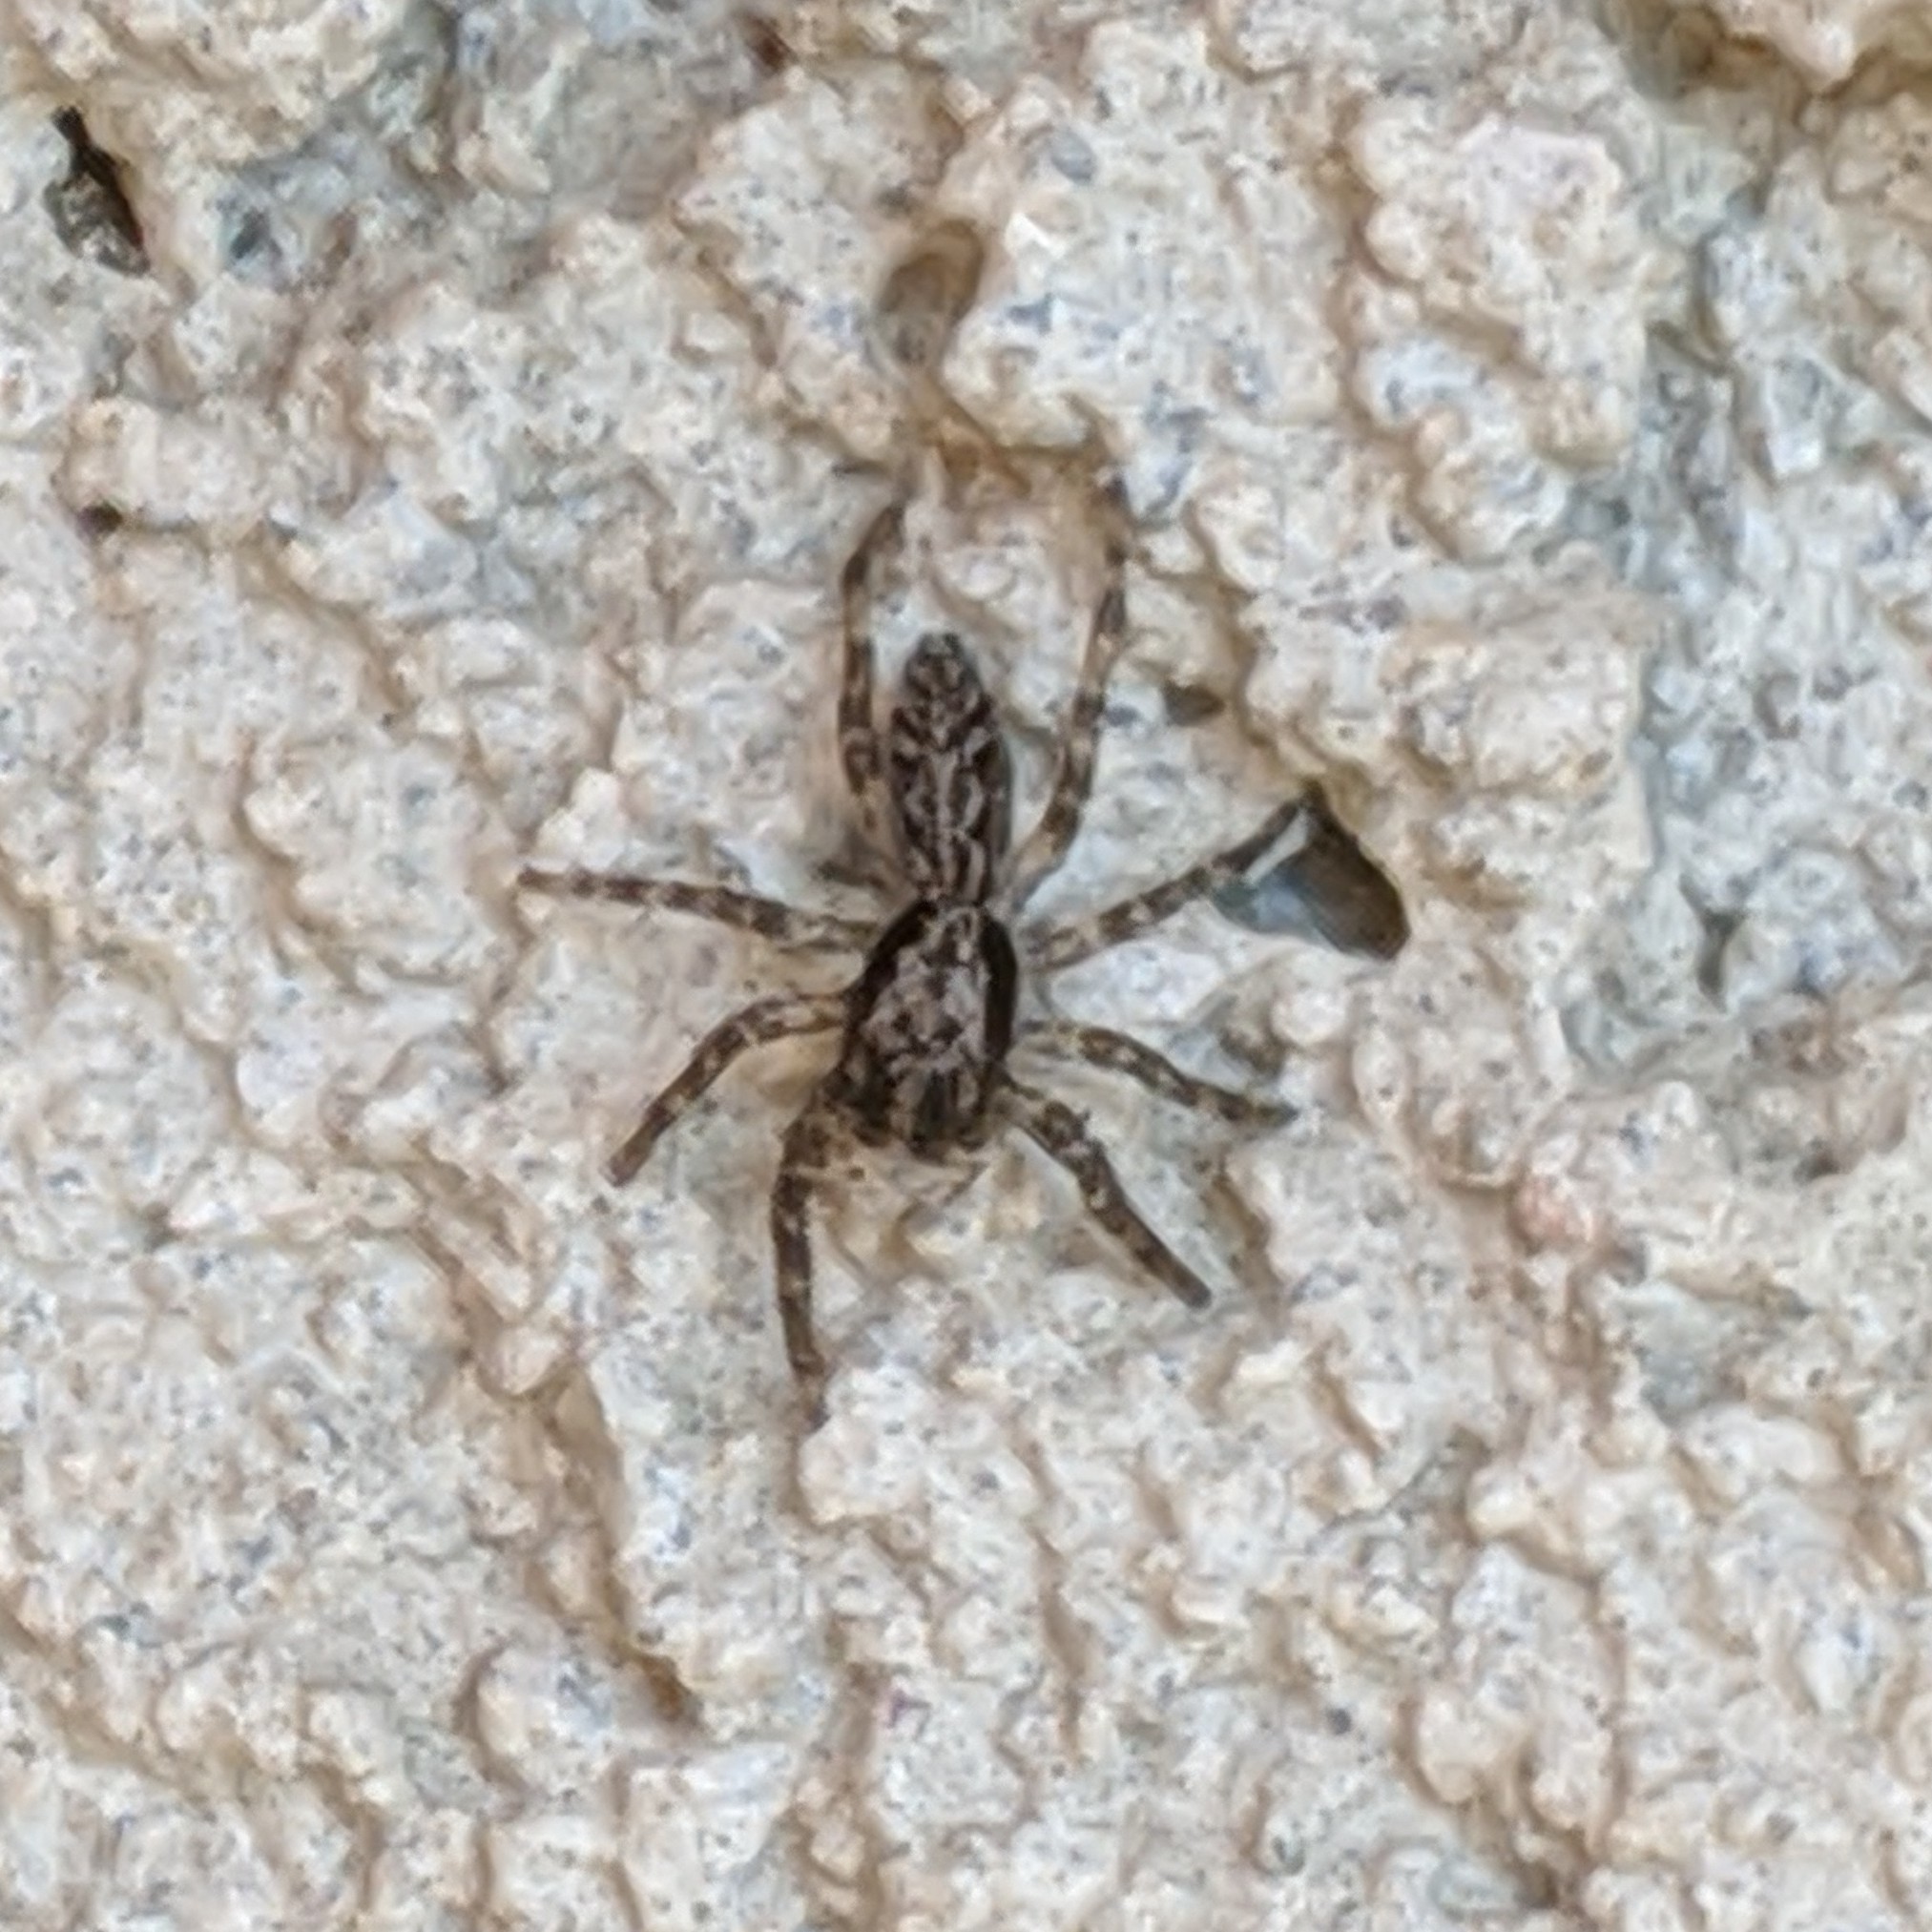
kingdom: Animalia
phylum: Arthropoda
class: Arachnida
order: Araneae
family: Salticidae
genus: Platycryptus
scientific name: Platycryptus californicus
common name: Jumping spiders
